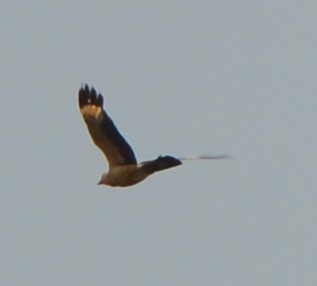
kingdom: Animalia
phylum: Chordata
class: Aves
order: Falconiformes
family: Falconidae
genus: Daptrius
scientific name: Daptrius
